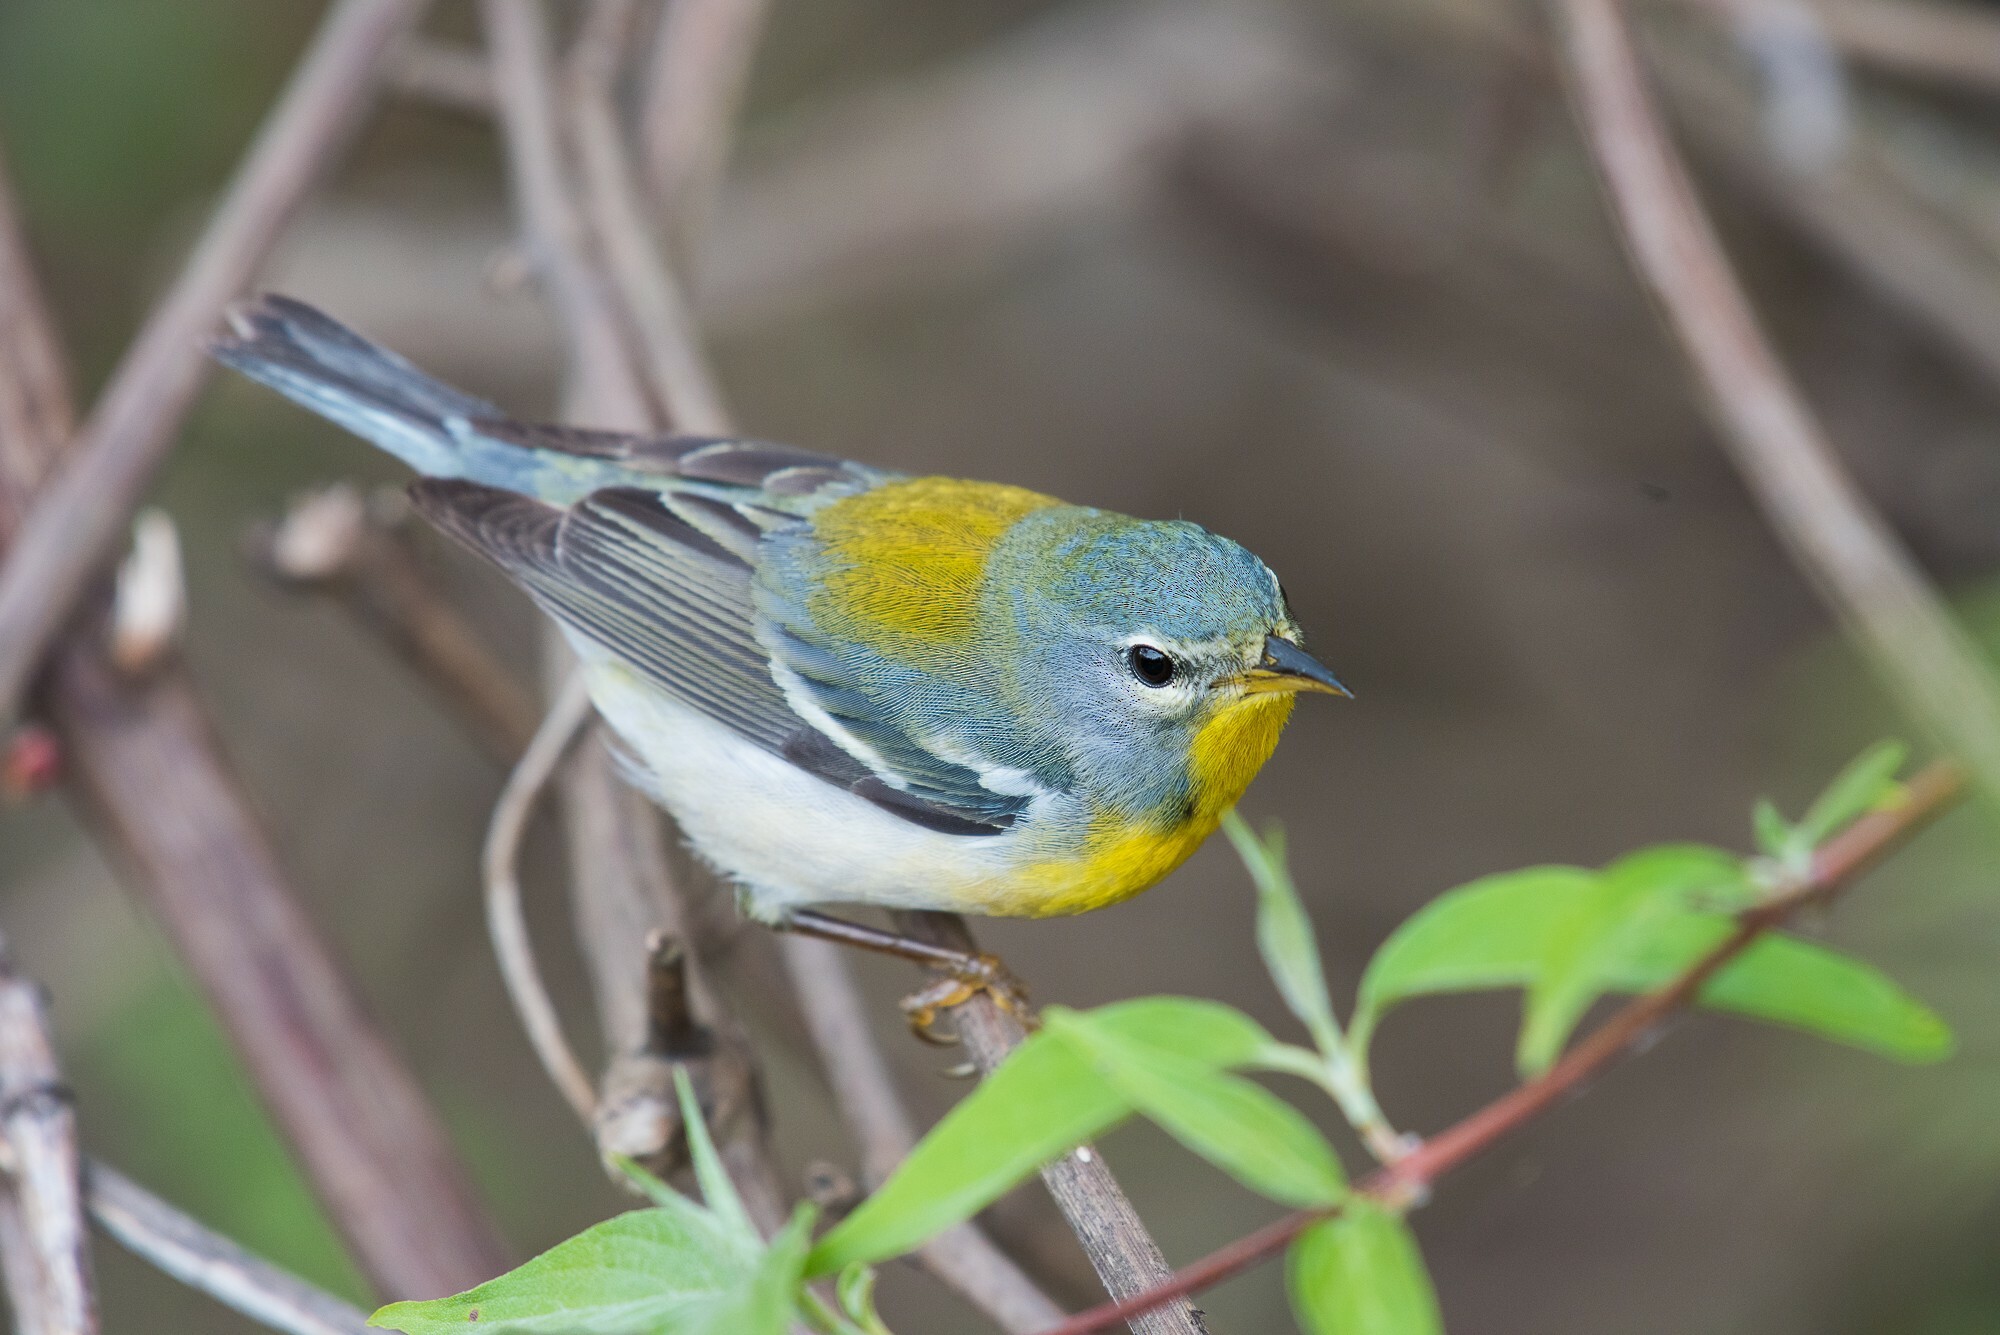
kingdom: Animalia
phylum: Chordata
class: Aves
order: Passeriformes
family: Parulidae
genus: Setophaga
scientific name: Setophaga americana
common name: Northern parula
